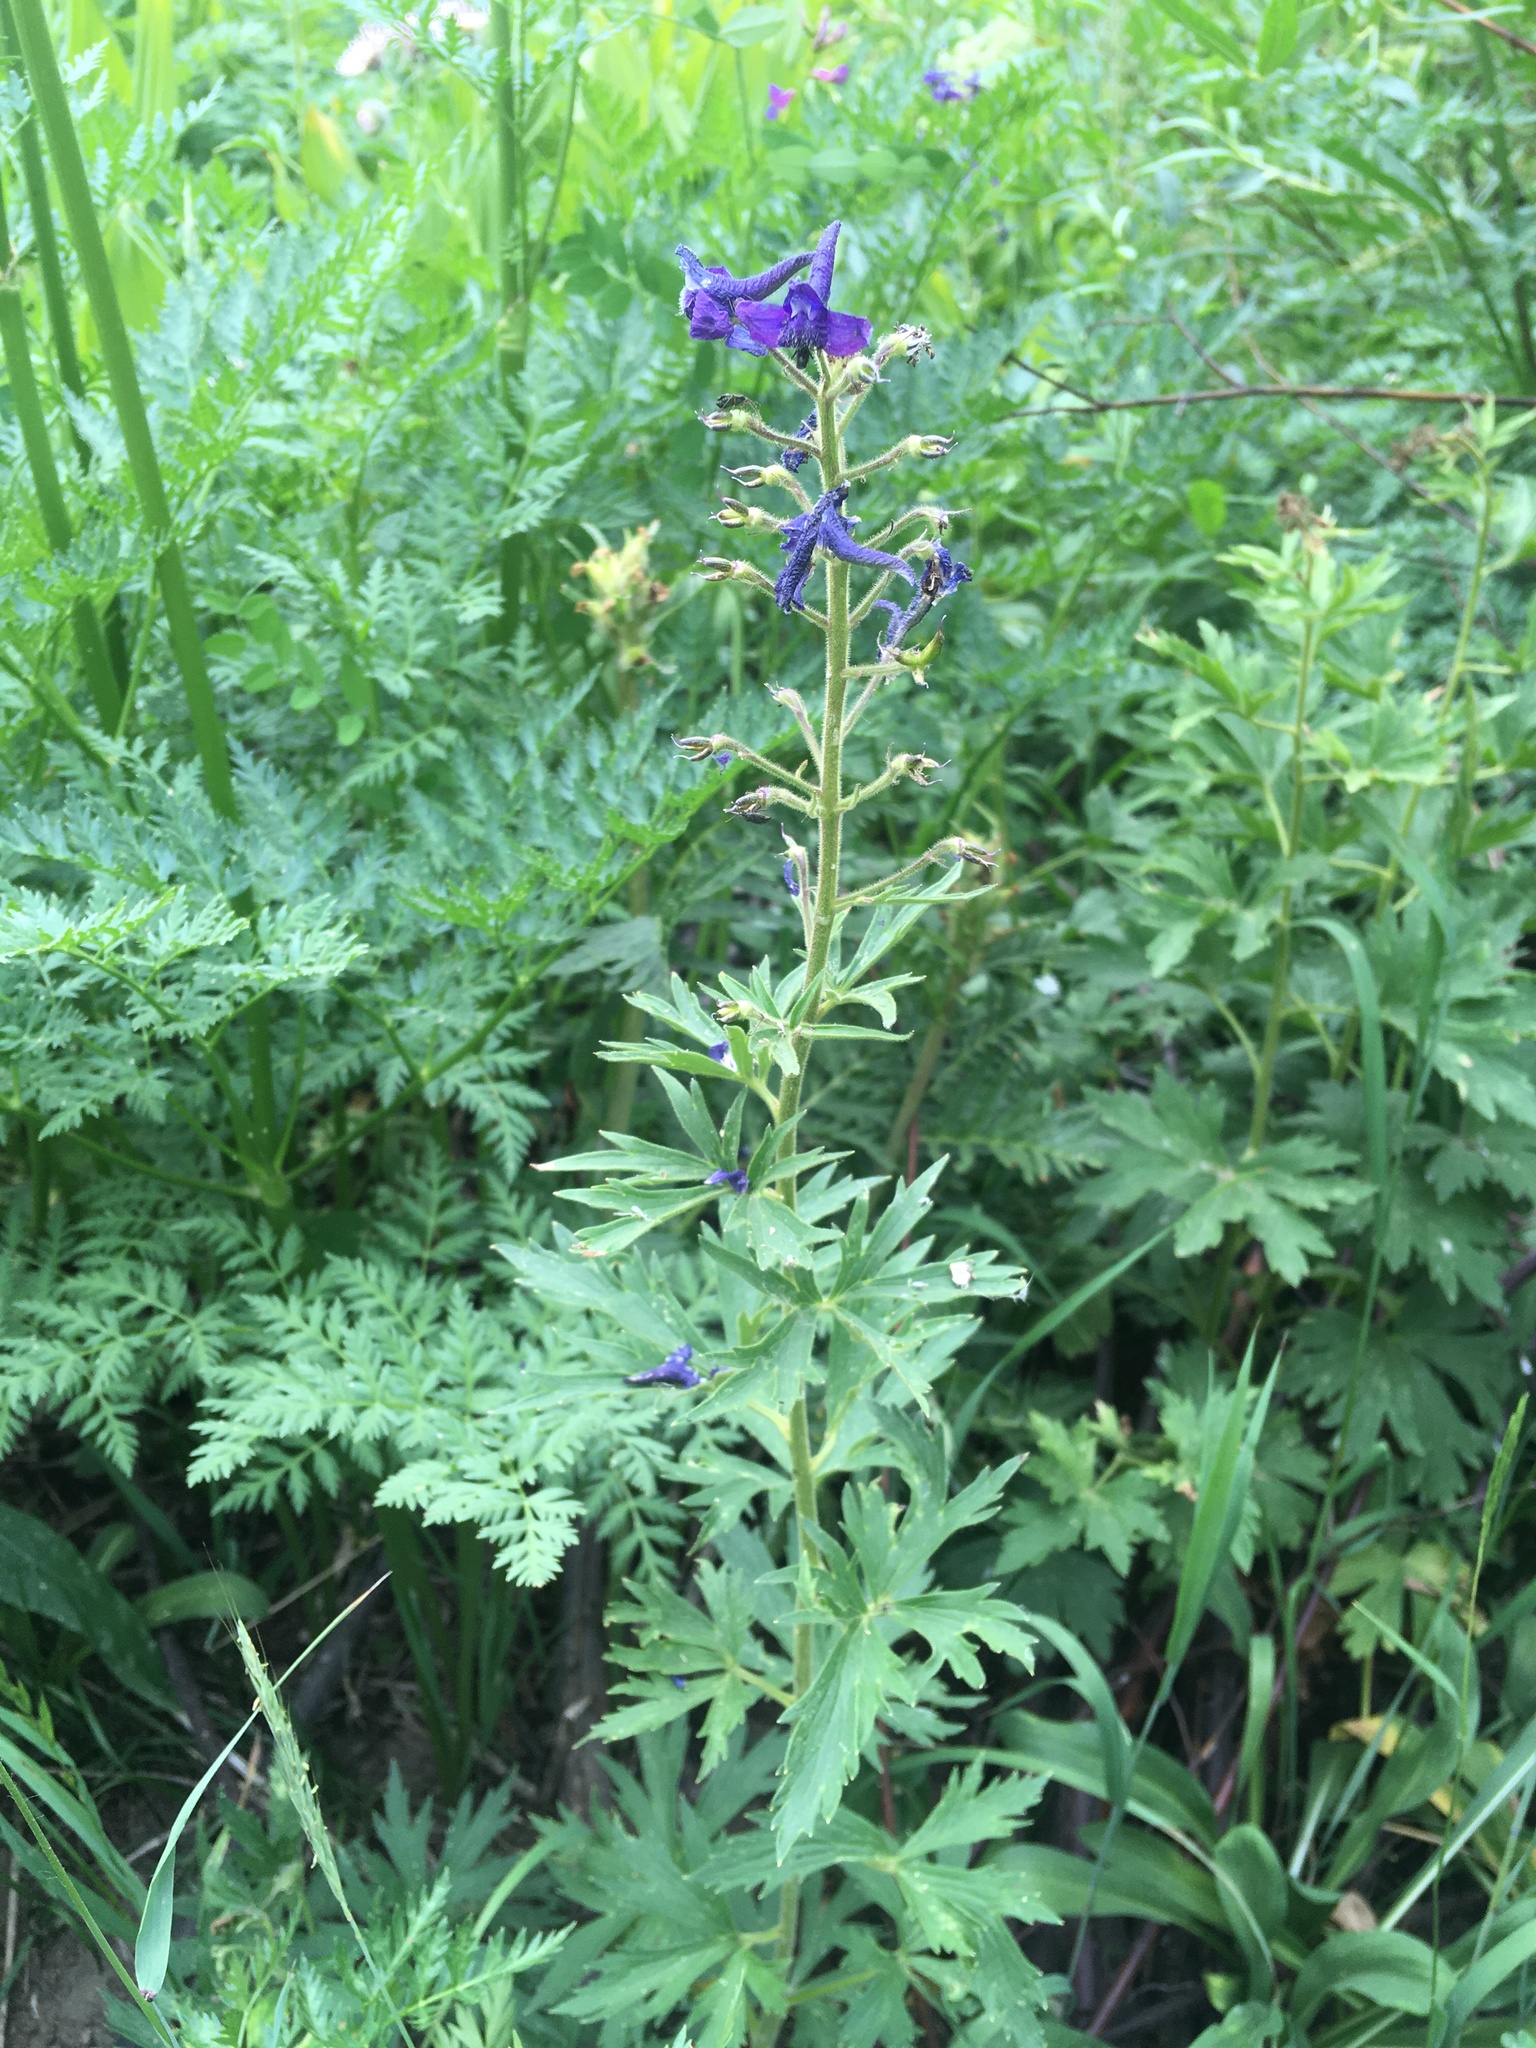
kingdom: Plantae
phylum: Tracheophyta
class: Magnoliopsida
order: Ranunculales
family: Ranunculaceae
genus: Delphinium
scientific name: Delphinium barbeyi
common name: Subalpine larkspur
